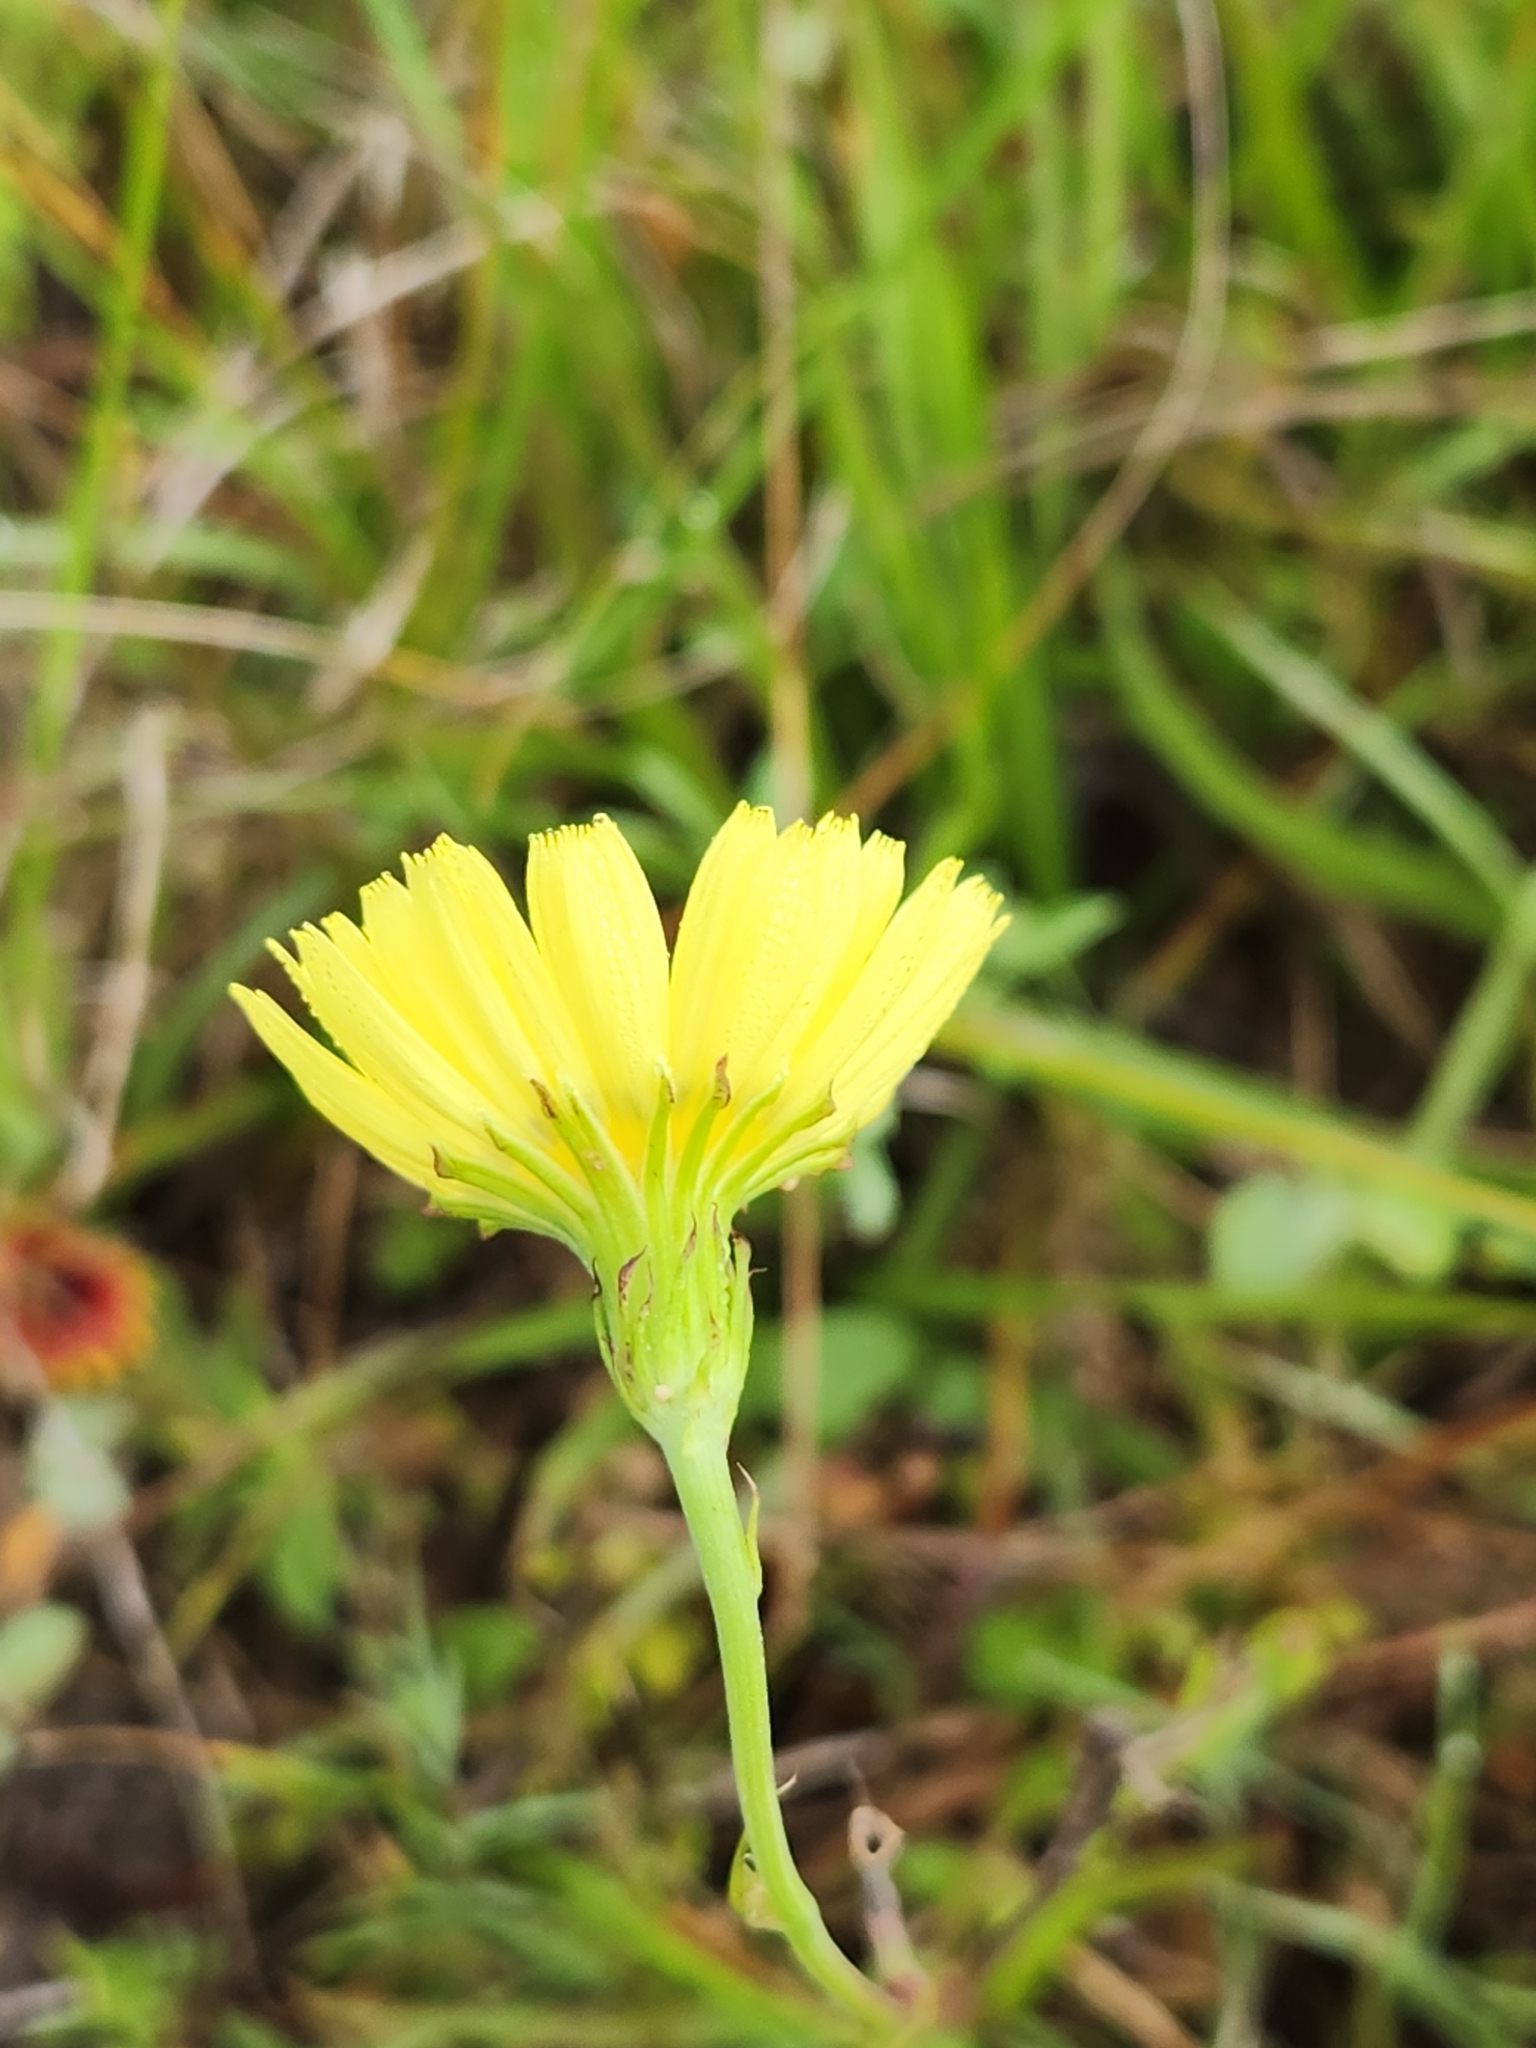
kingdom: Plantae
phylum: Tracheophyta
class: Magnoliopsida
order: Asterales
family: Asteraceae
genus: Pyrrhopappus
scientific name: Pyrrhopappus carolinianus
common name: Carolina desert-chicory
